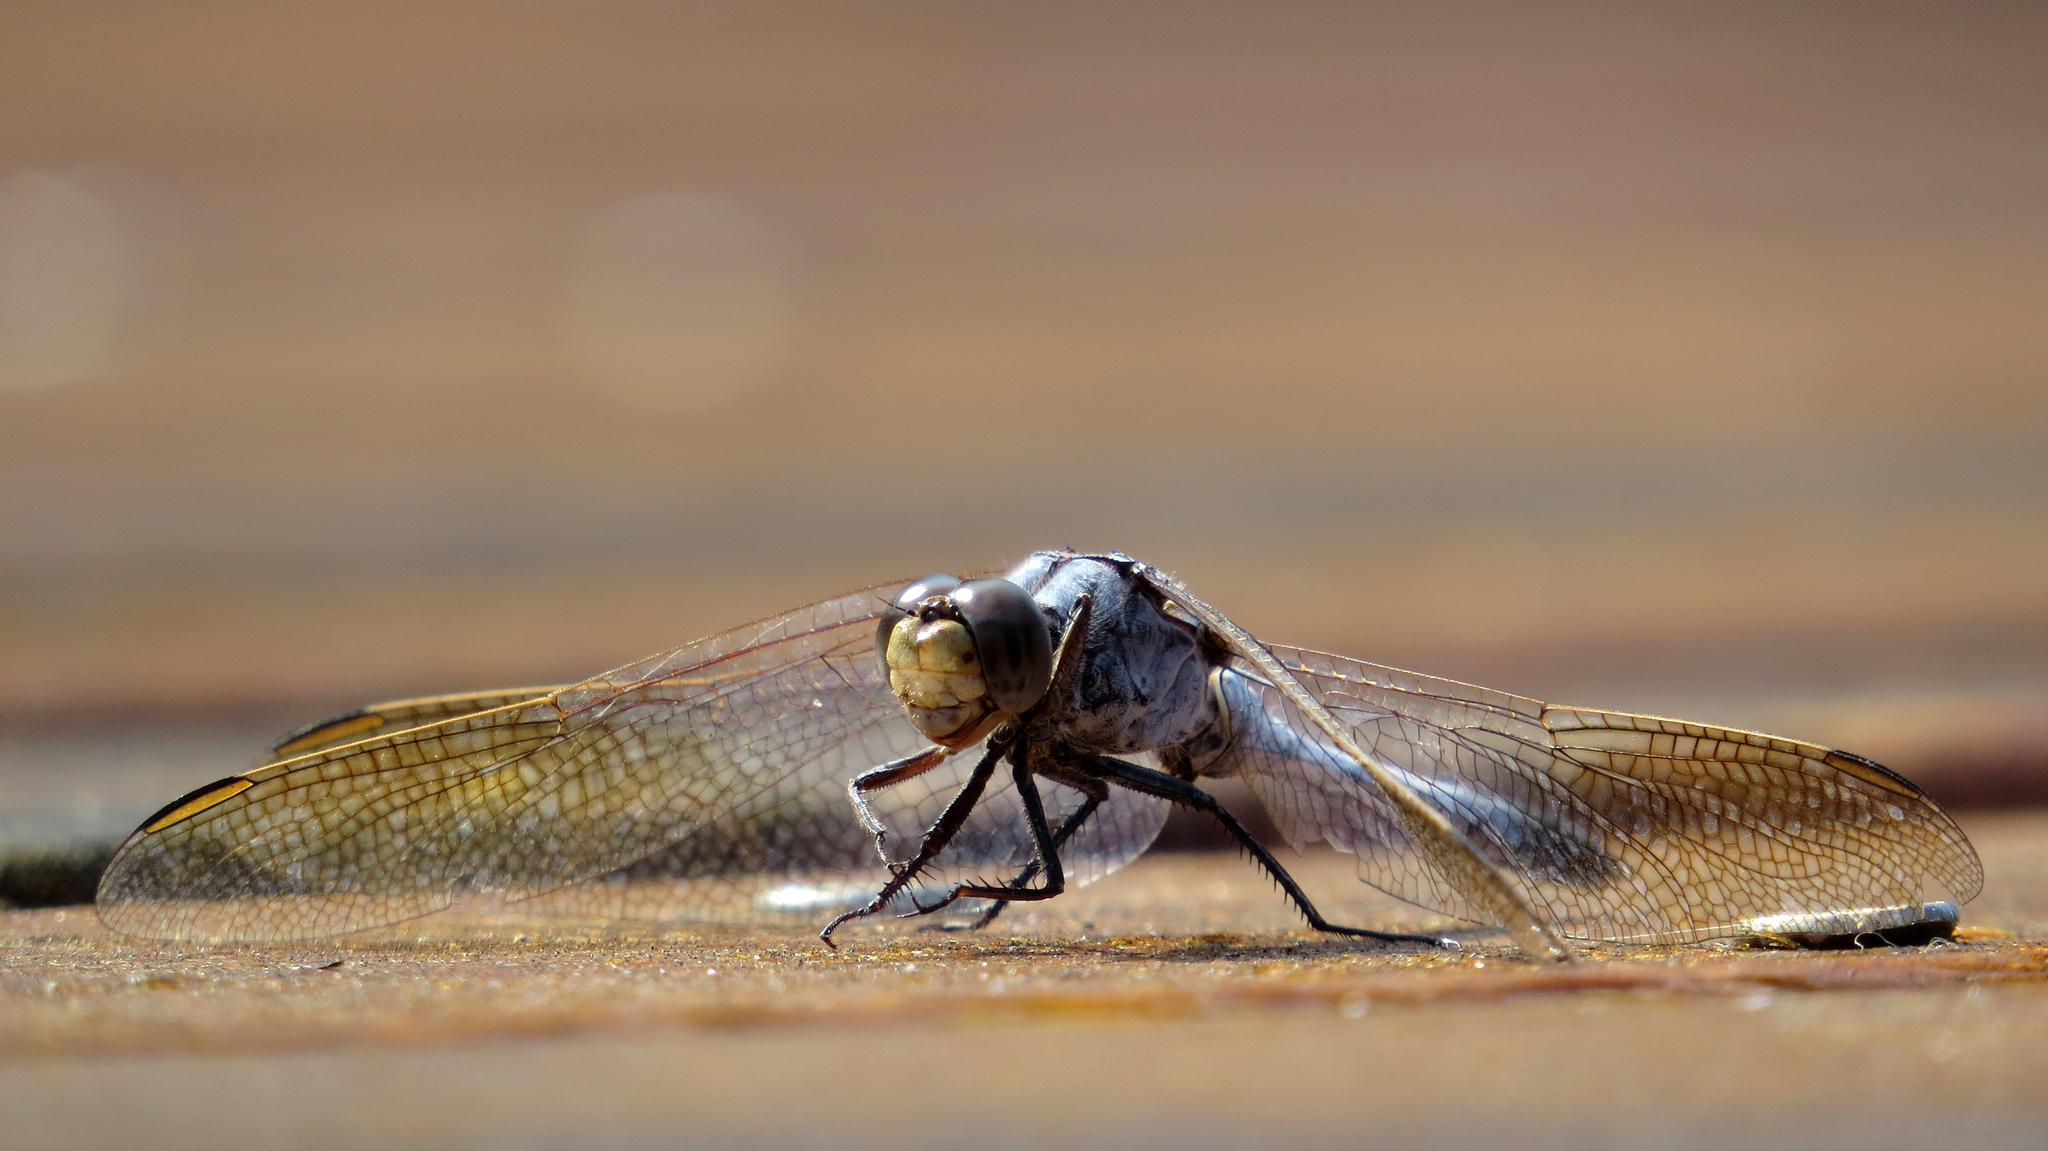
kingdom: Animalia
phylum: Arthropoda
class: Insecta
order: Odonata
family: Libellulidae
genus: Orthetrum
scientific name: Orthetrum caledonicum
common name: Blue skimmer
